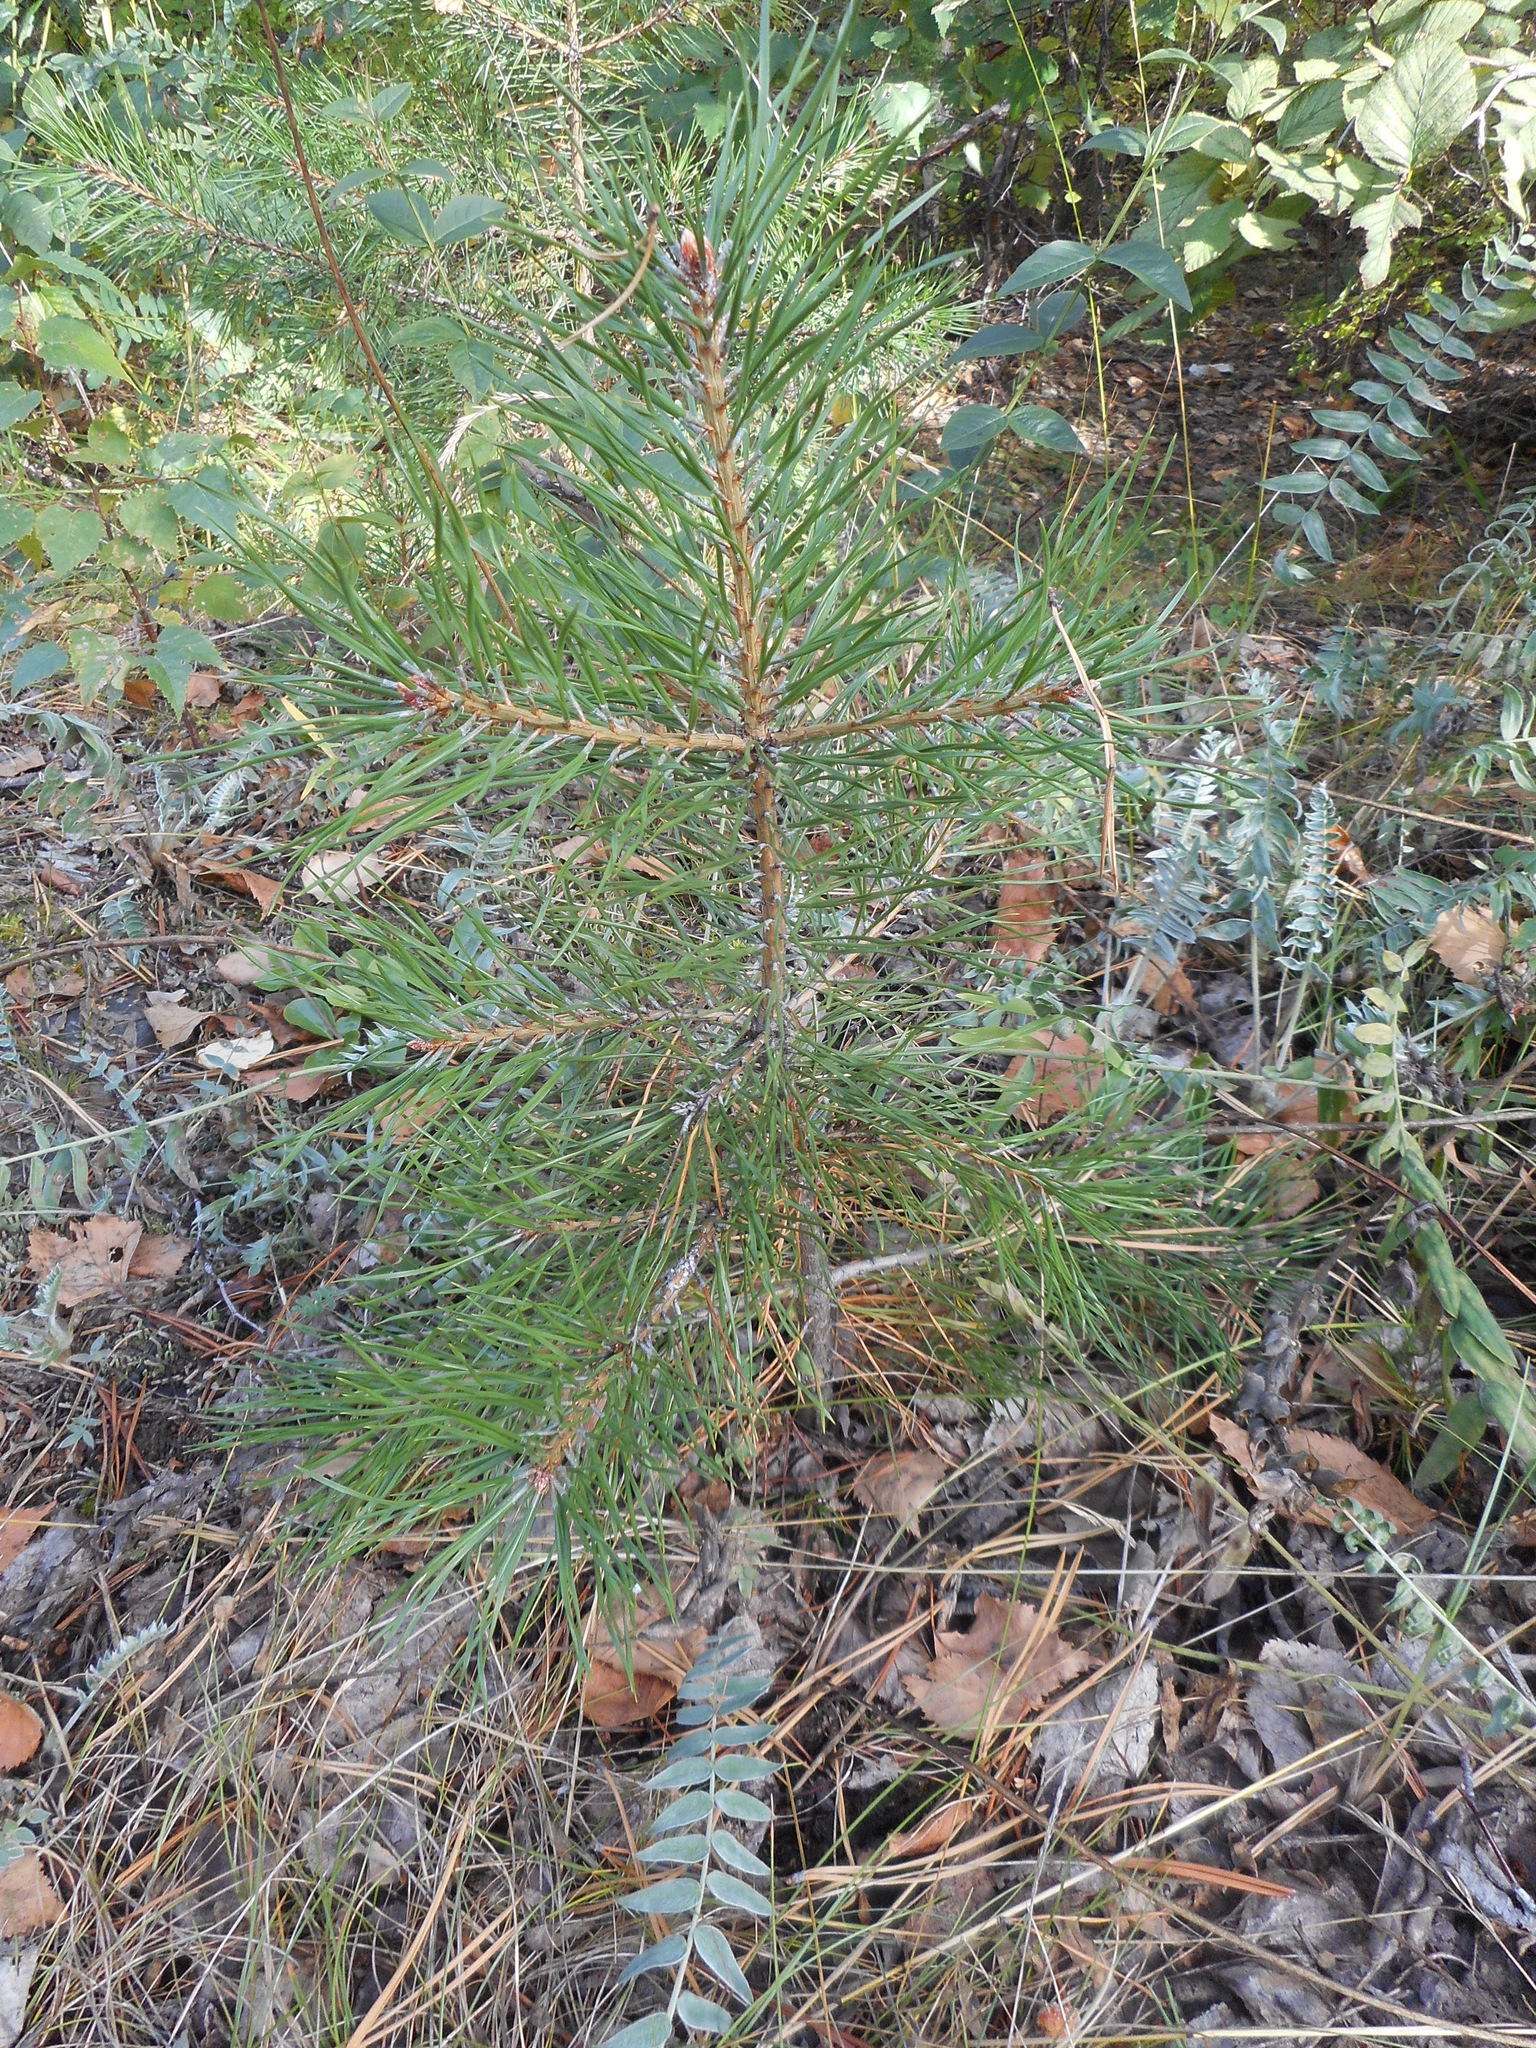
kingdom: Plantae
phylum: Tracheophyta
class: Pinopsida
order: Pinales
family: Pinaceae
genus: Pinus
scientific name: Pinus sylvestris
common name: Scots pine
